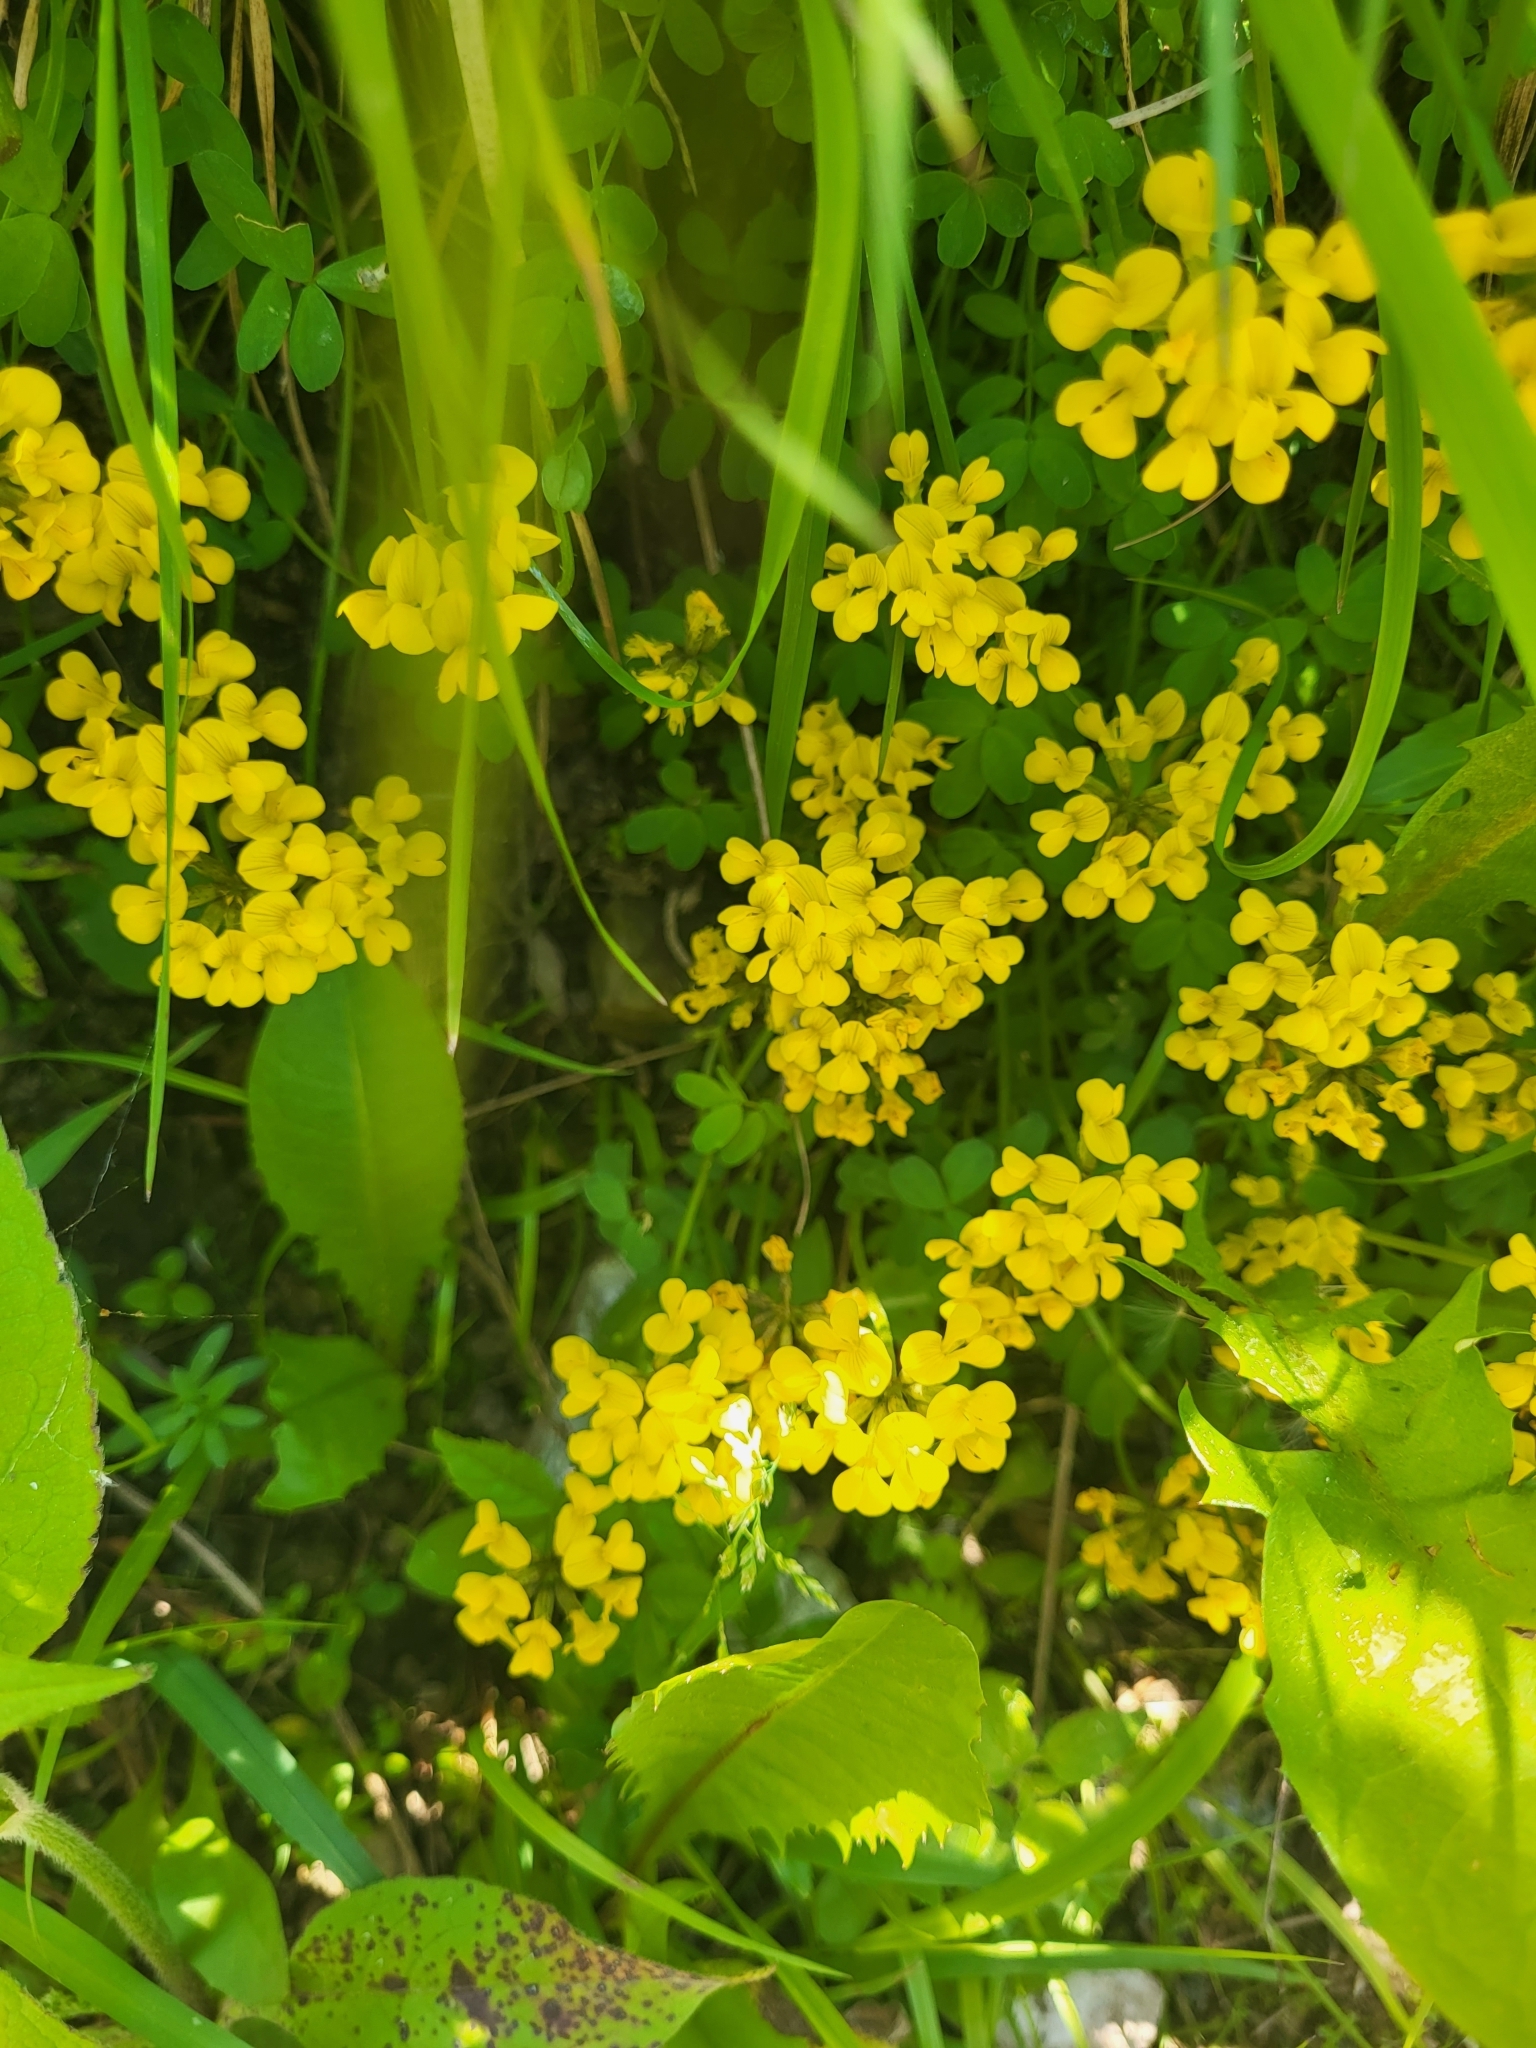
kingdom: Plantae
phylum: Tracheophyta
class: Magnoliopsida
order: Fabales
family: Fabaceae
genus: Hippocrepis
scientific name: Hippocrepis comosa
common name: Horseshoe vetch
